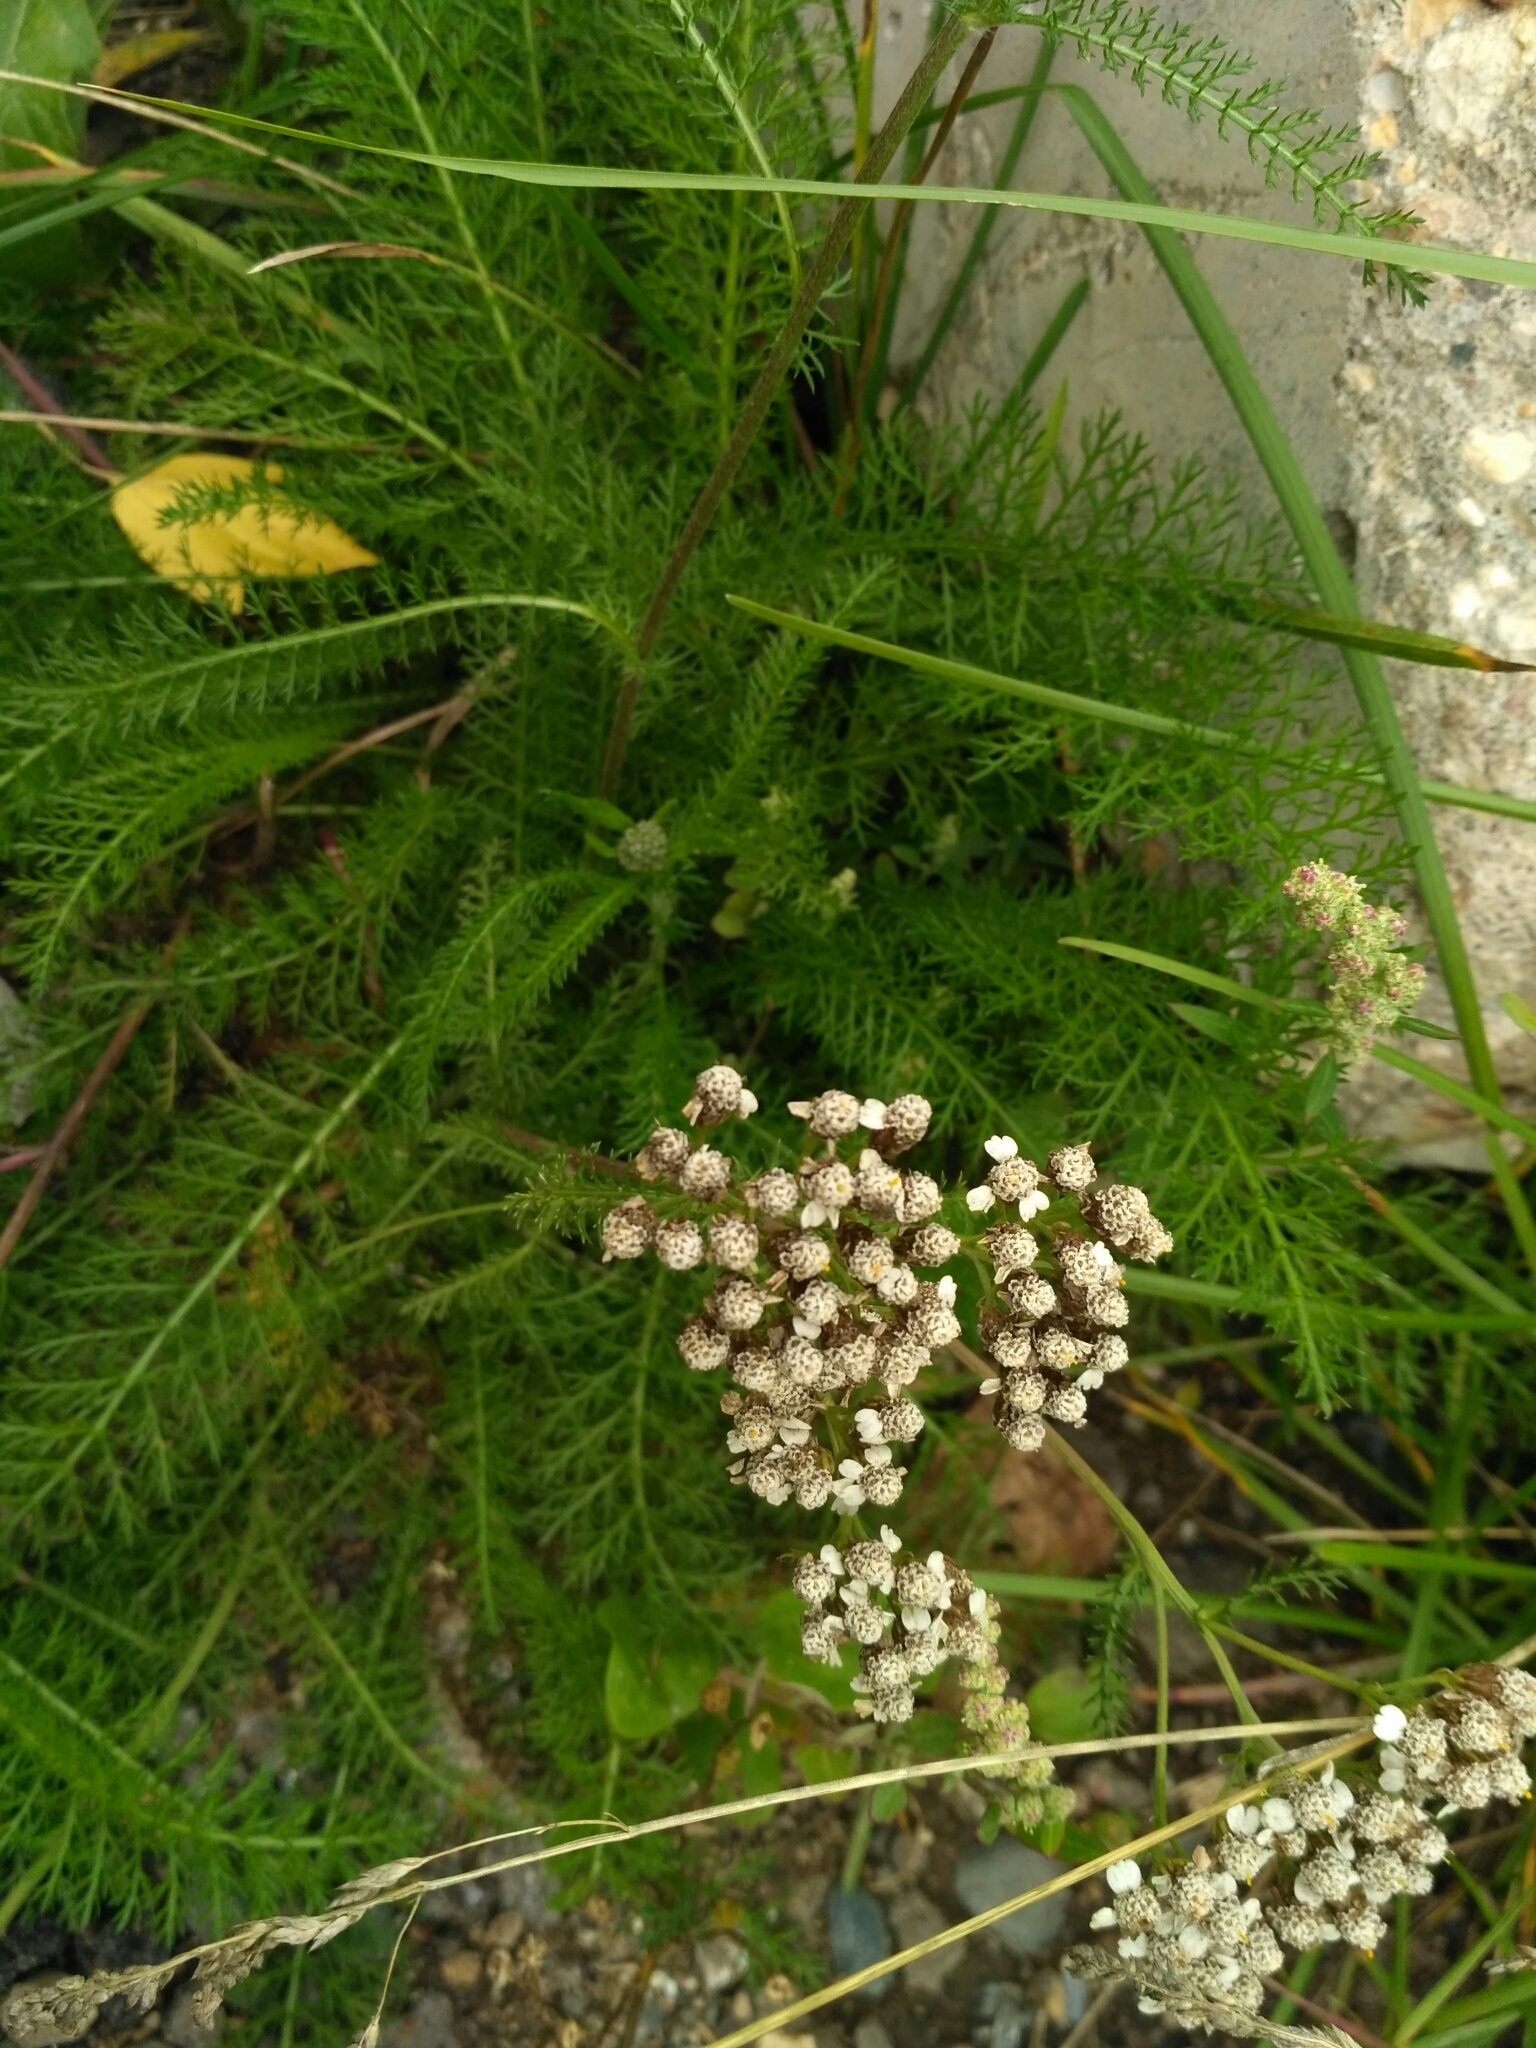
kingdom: Plantae
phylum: Tracheophyta
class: Magnoliopsida
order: Asterales
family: Asteraceae
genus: Achillea
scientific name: Achillea millefolium
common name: Yarrow
